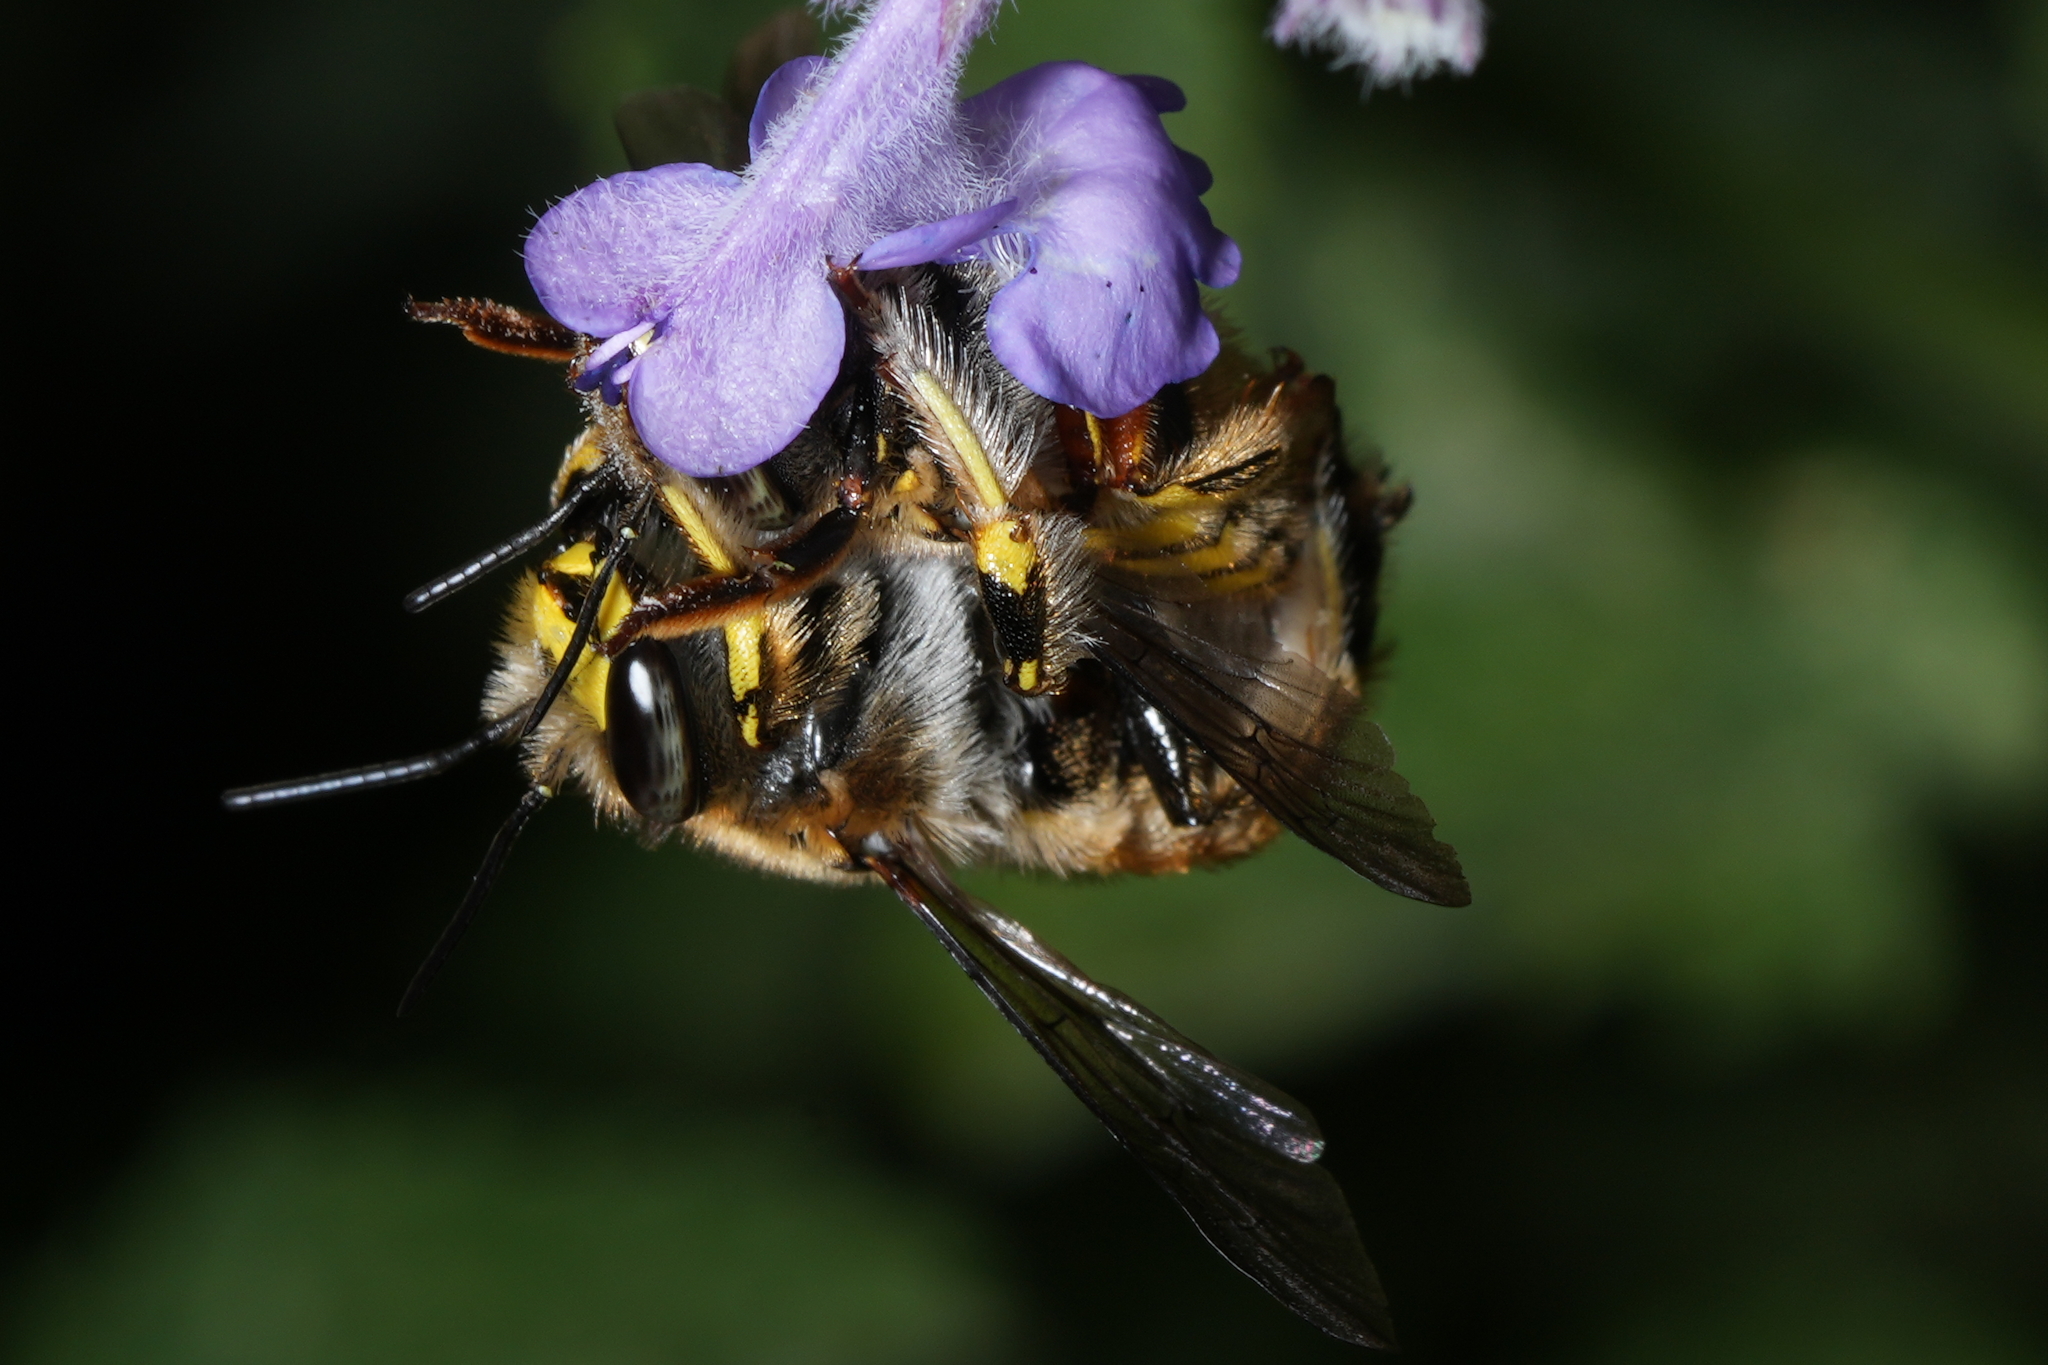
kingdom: Animalia
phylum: Arthropoda
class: Insecta
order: Hymenoptera
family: Megachilidae
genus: Anthidium
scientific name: Anthidium manicatum
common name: Wool carder bee
